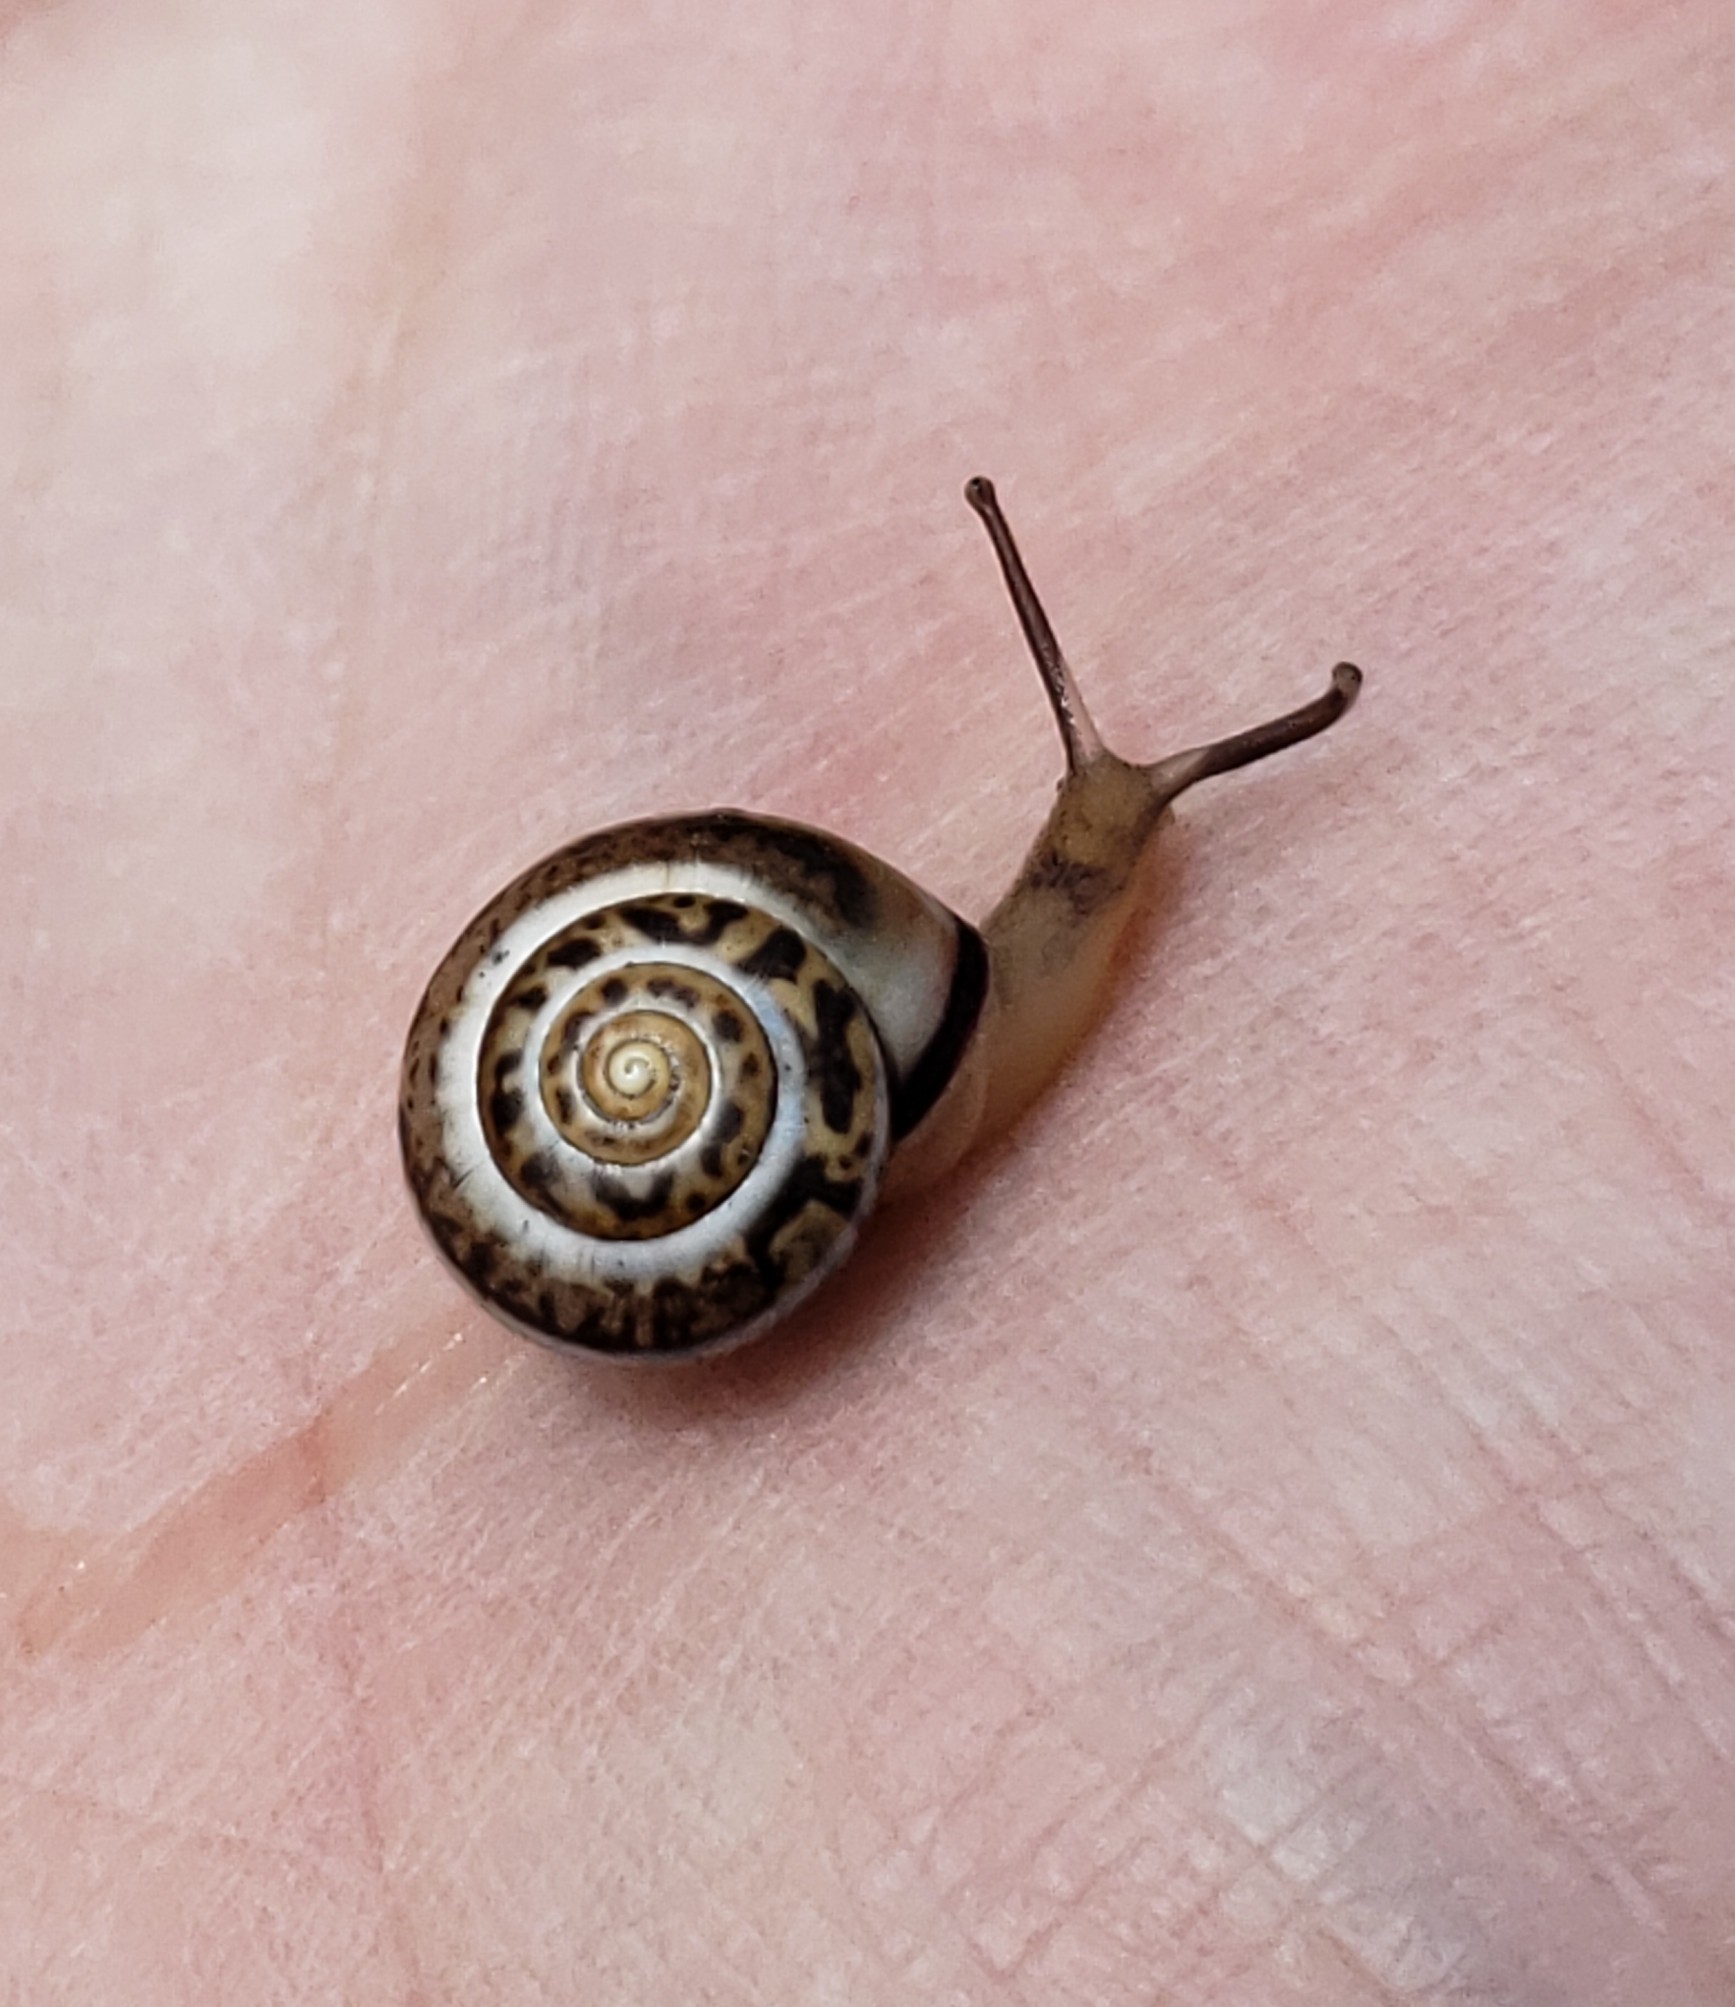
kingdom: Animalia
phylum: Mollusca
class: Gastropoda
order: Stylommatophora
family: Hygromiidae
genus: Monacha
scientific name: Monacha syriaca
